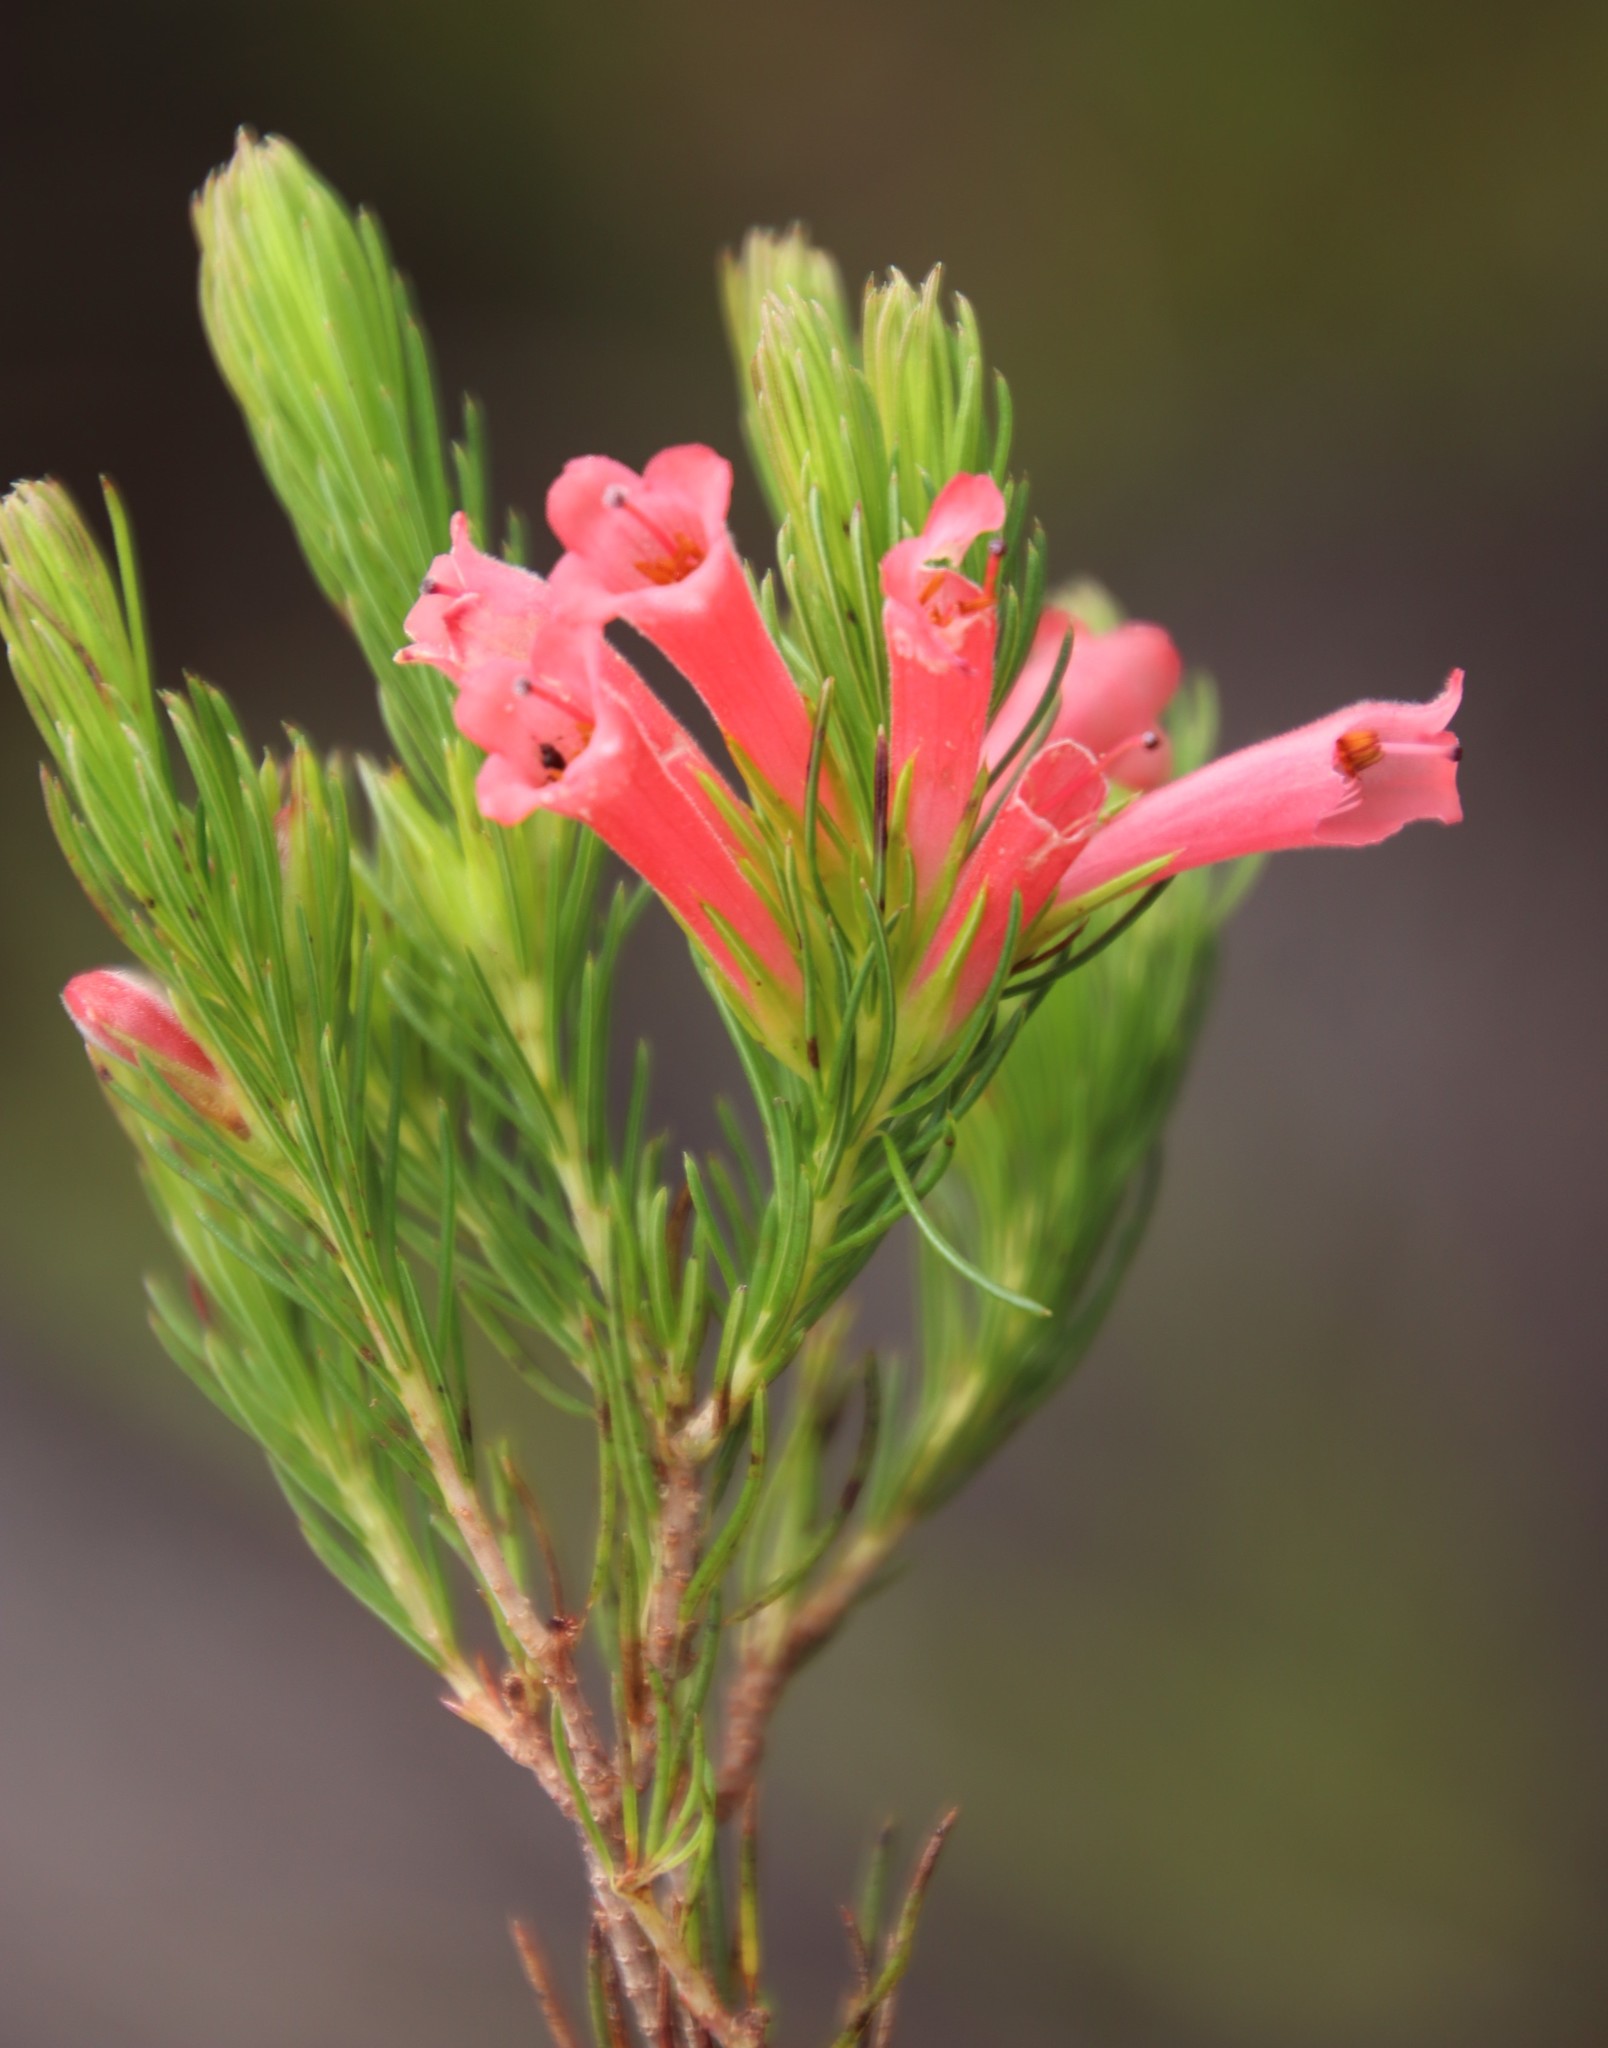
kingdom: Plantae
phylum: Tracheophyta
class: Magnoliopsida
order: Ericales
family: Ericaceae
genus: Erica
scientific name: Erica vestita
